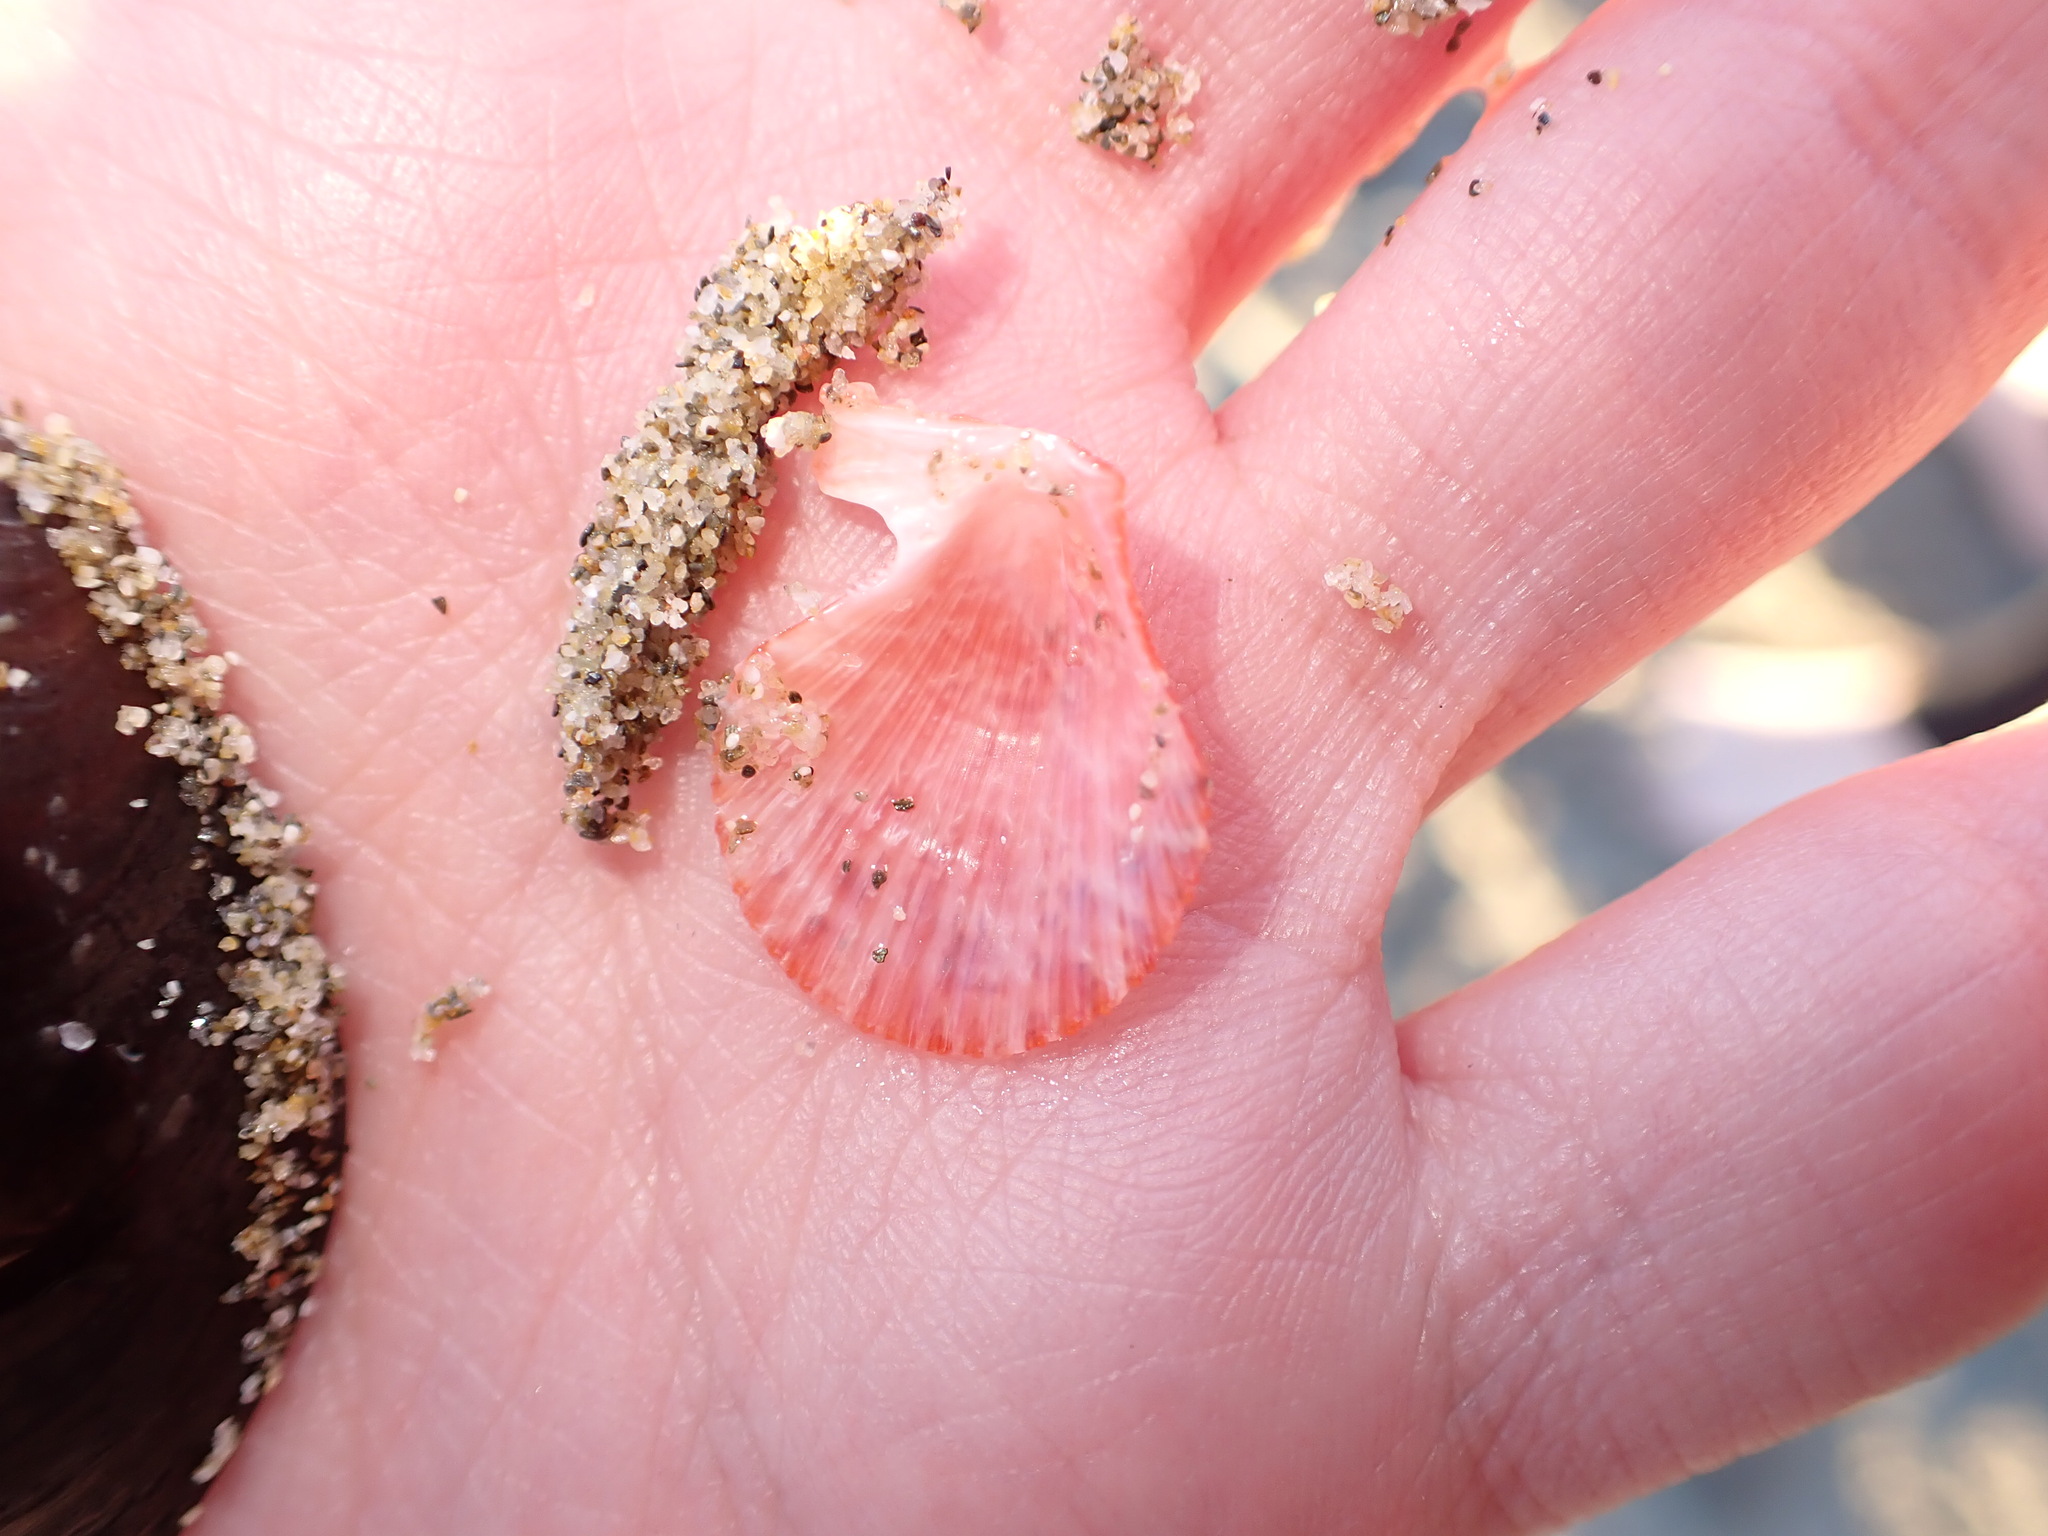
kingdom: Animalia
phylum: Mollusca
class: Bivalvia
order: Pectinida
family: Pectinidae
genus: Talochlamys
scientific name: Talochlamys multistriata
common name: Tinted scallop
